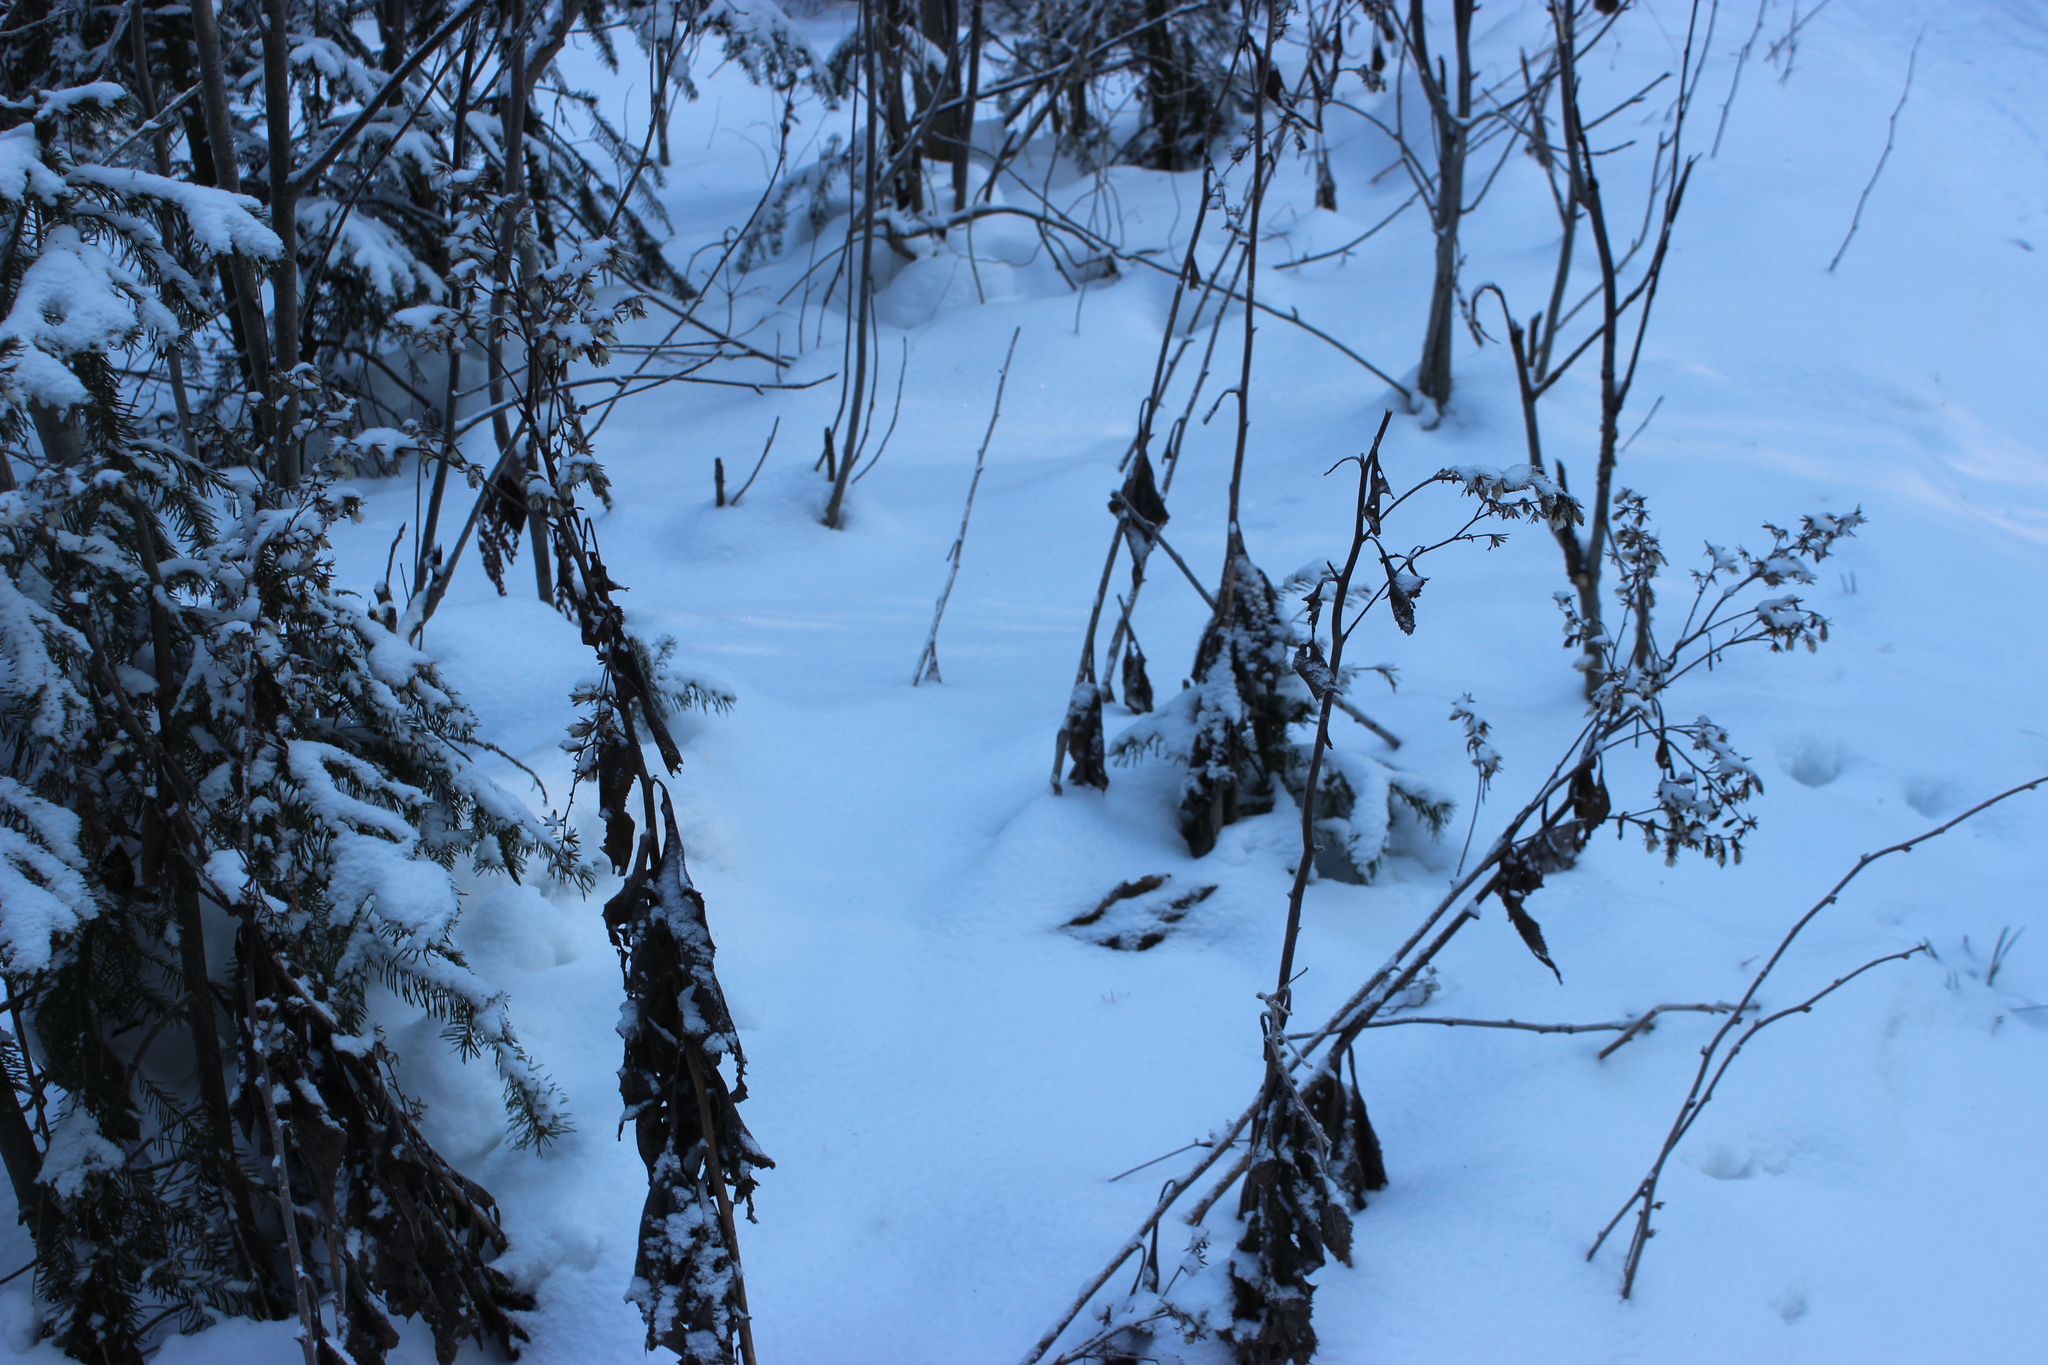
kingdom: Plantae
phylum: Tracheophyta
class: Magnoliopsida
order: Asterales
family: Asteraceae
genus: Parasenecio
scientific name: Parasenecio hastatus
